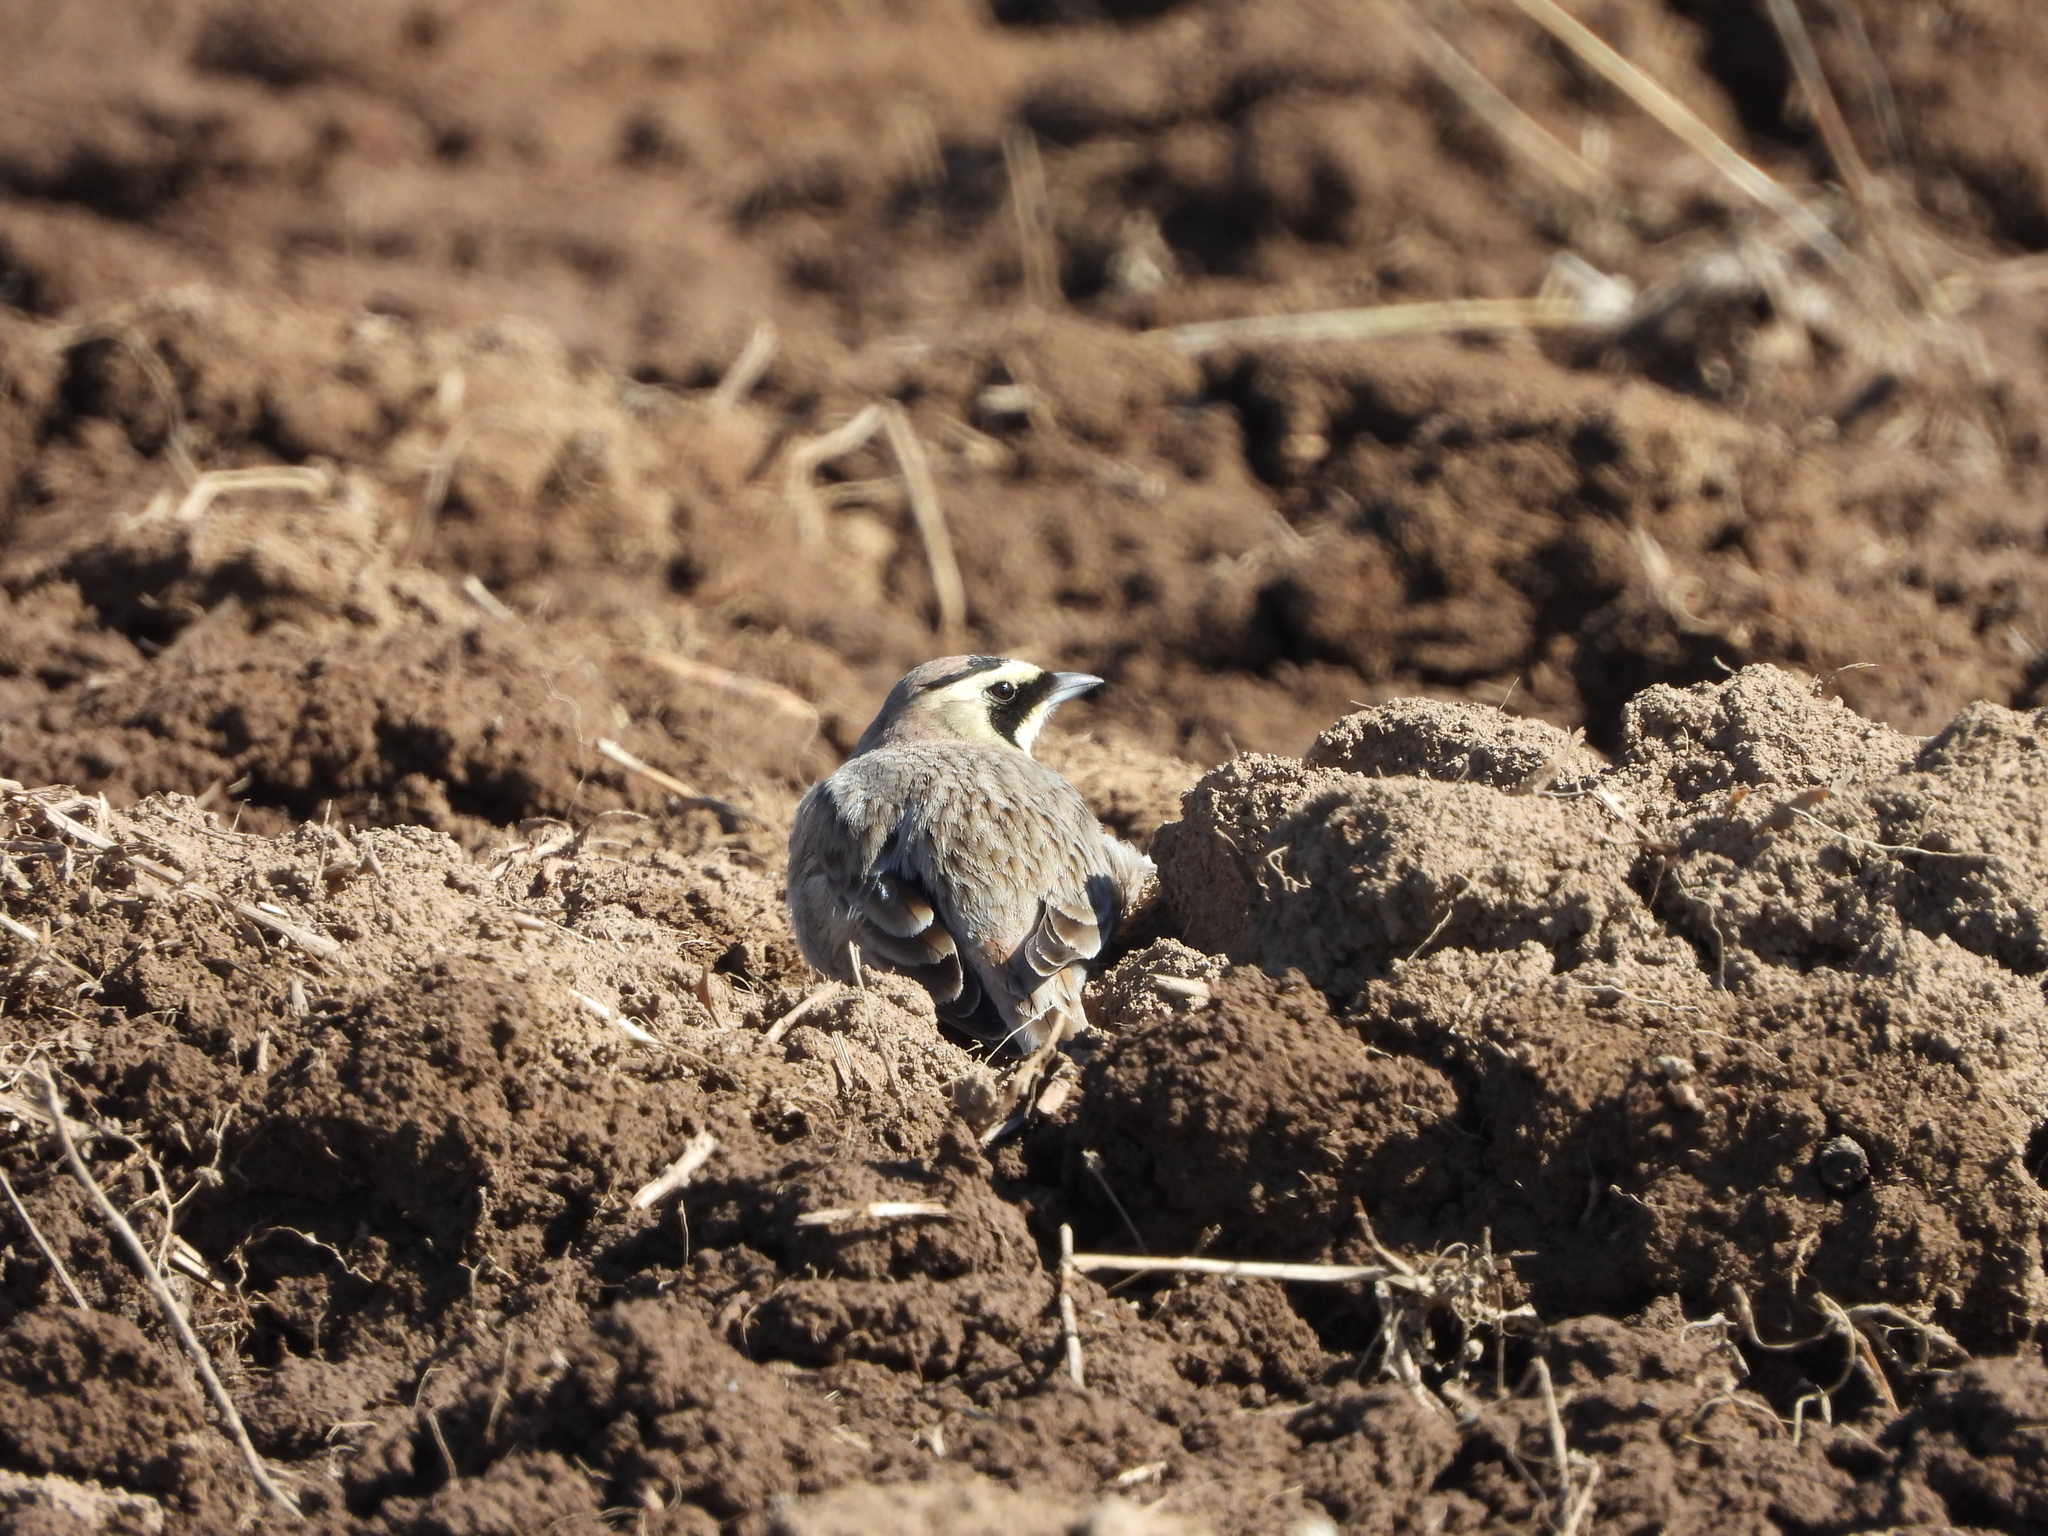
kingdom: Animalia
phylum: Chordata
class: Aves
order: Passeriformes
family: Alaudidae
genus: Eremophila
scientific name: Eremophila alpestris
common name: Horned lark
